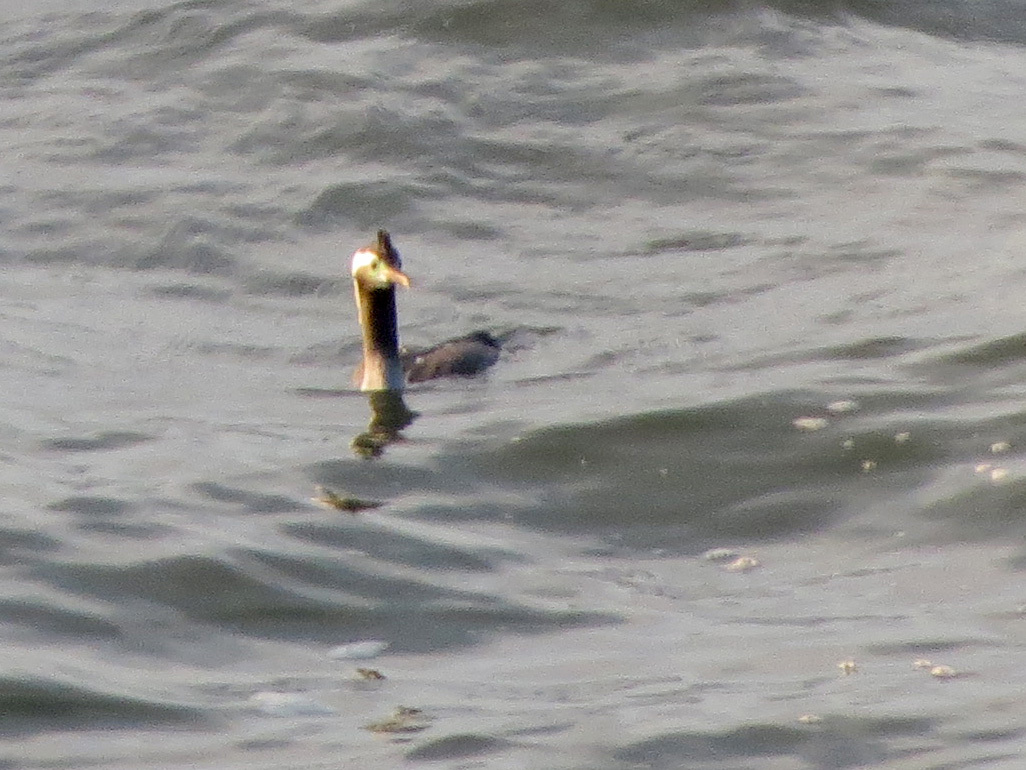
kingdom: Animalia
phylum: Chordata
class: Aves
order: Suliformes
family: Phalacrocoracidae
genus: Phalacrocorax
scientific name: Phalacrocorax punctatus
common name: Spotted shag
